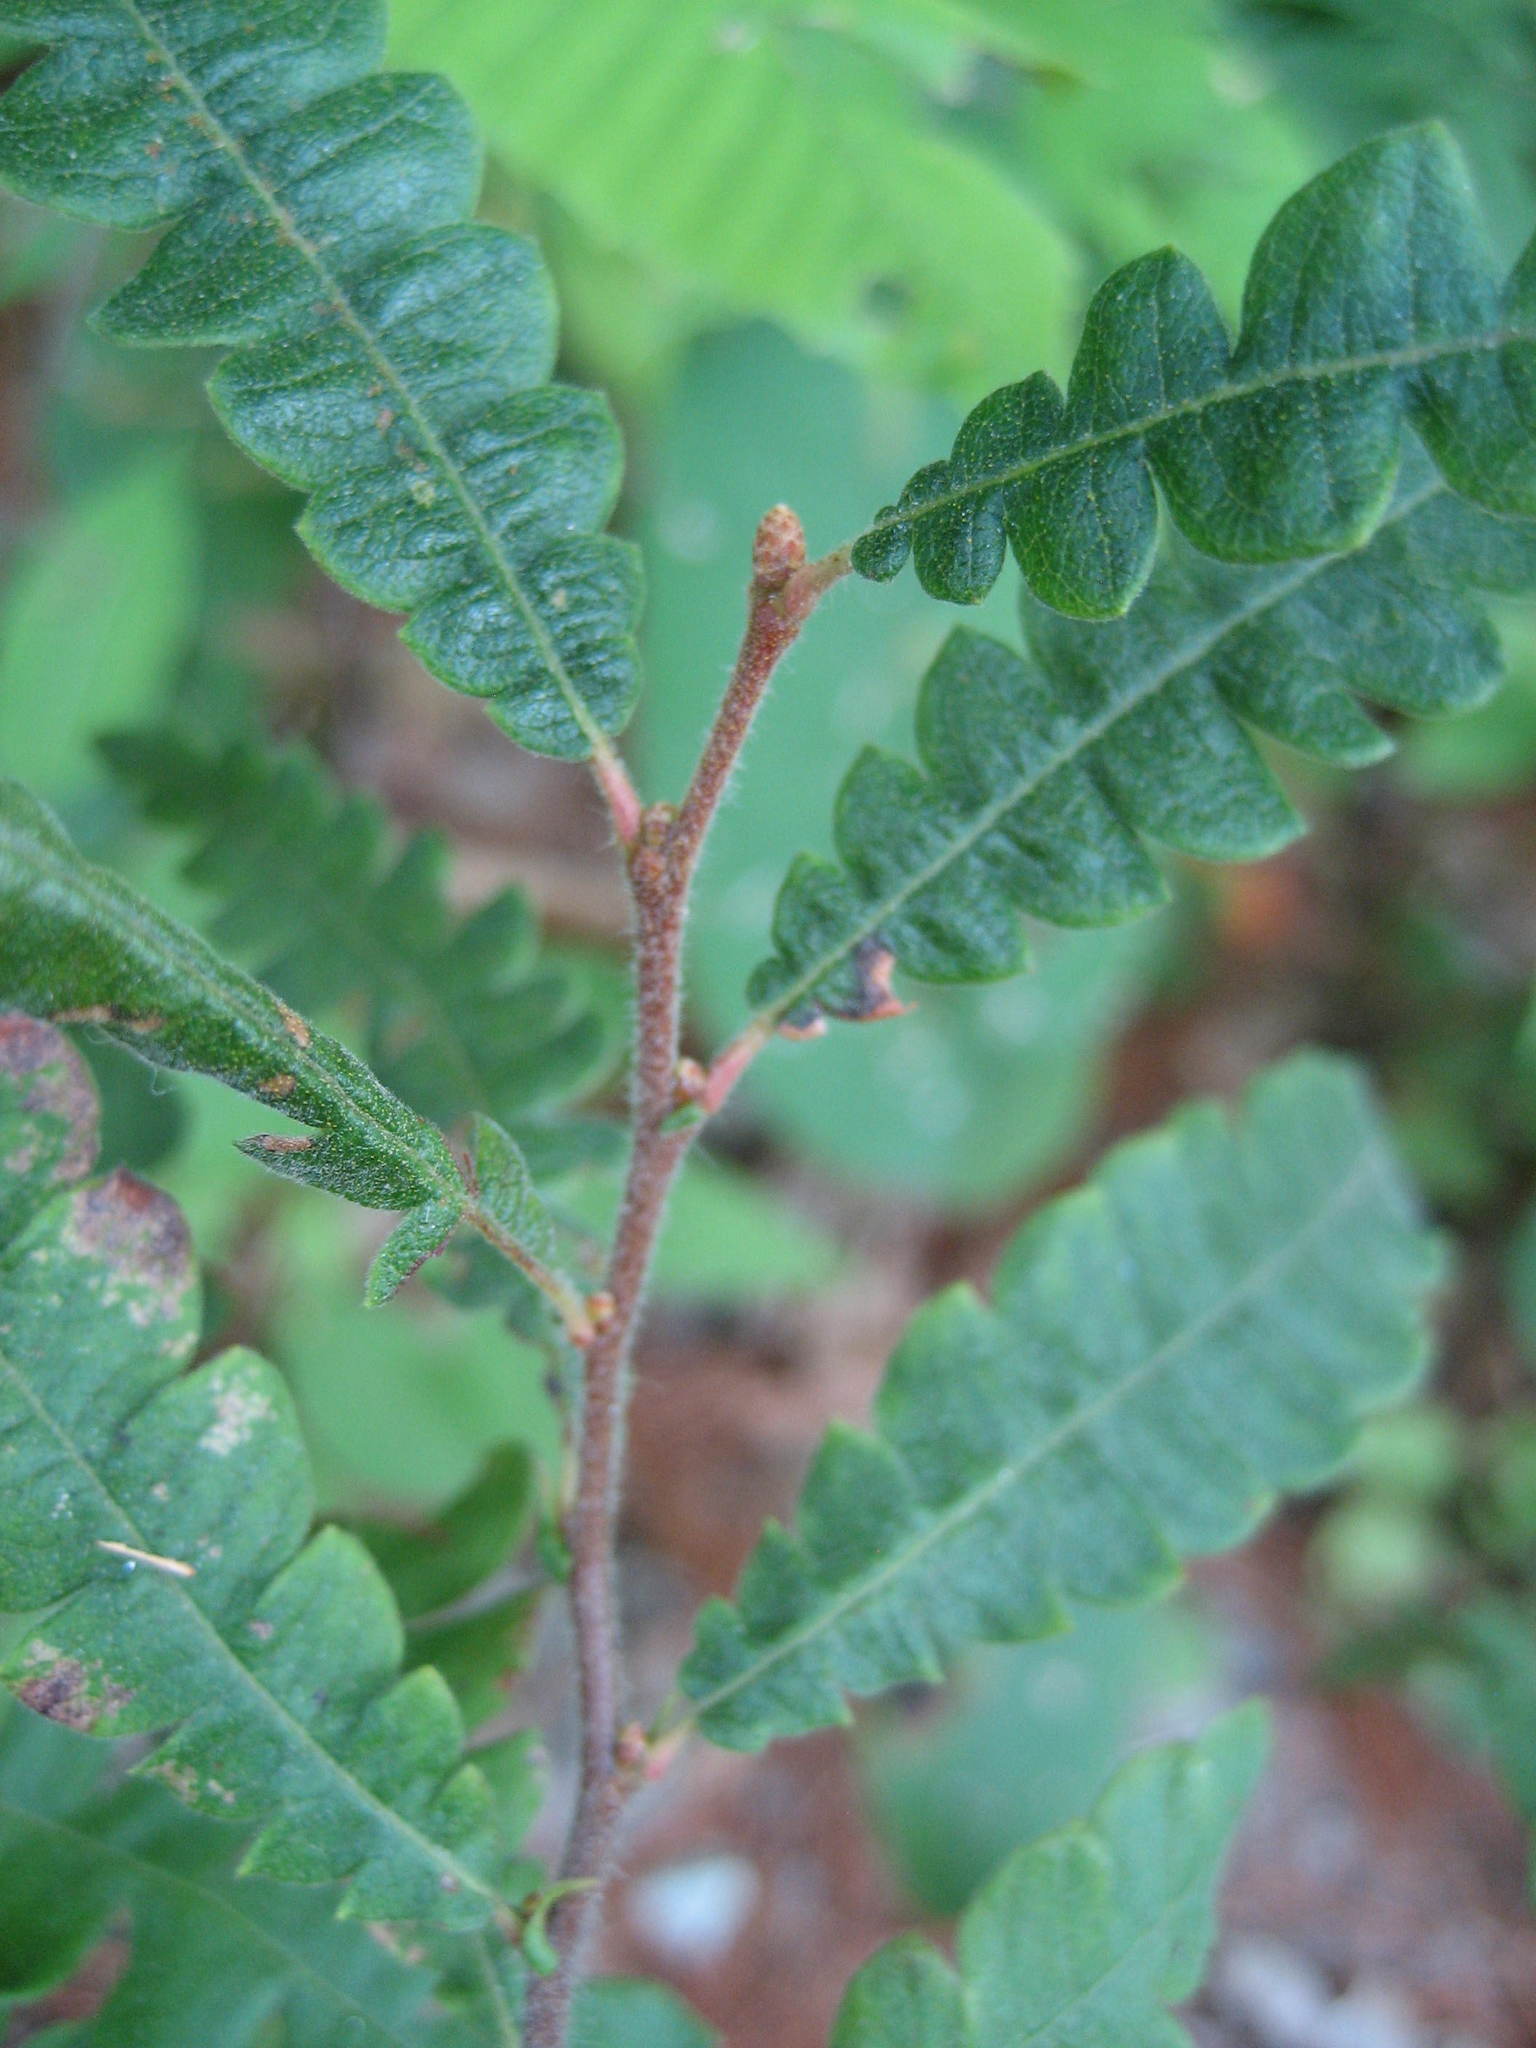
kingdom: Plantae
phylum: Tracheophyta
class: Magnoliopsida
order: Fagales
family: Myricaceae
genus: Comptonia
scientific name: Comptonia peregrina
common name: Sweet-fern
